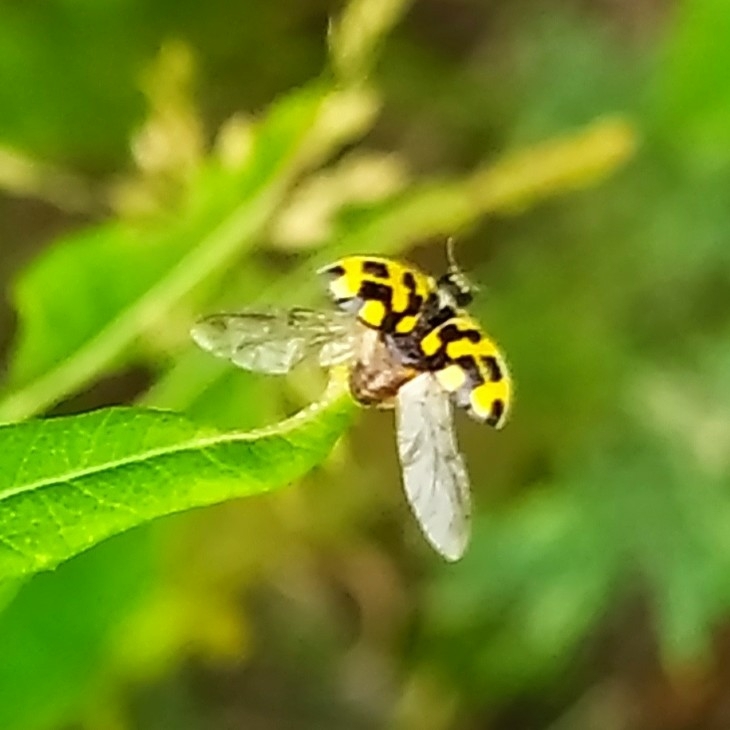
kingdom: Animalia
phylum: Arthropoda
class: Insecta
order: Coleoptera
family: Coccinellidae
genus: Propylaea
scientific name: Propylaea quatuordecimpunctata
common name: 14-spotted ladybird beetle
